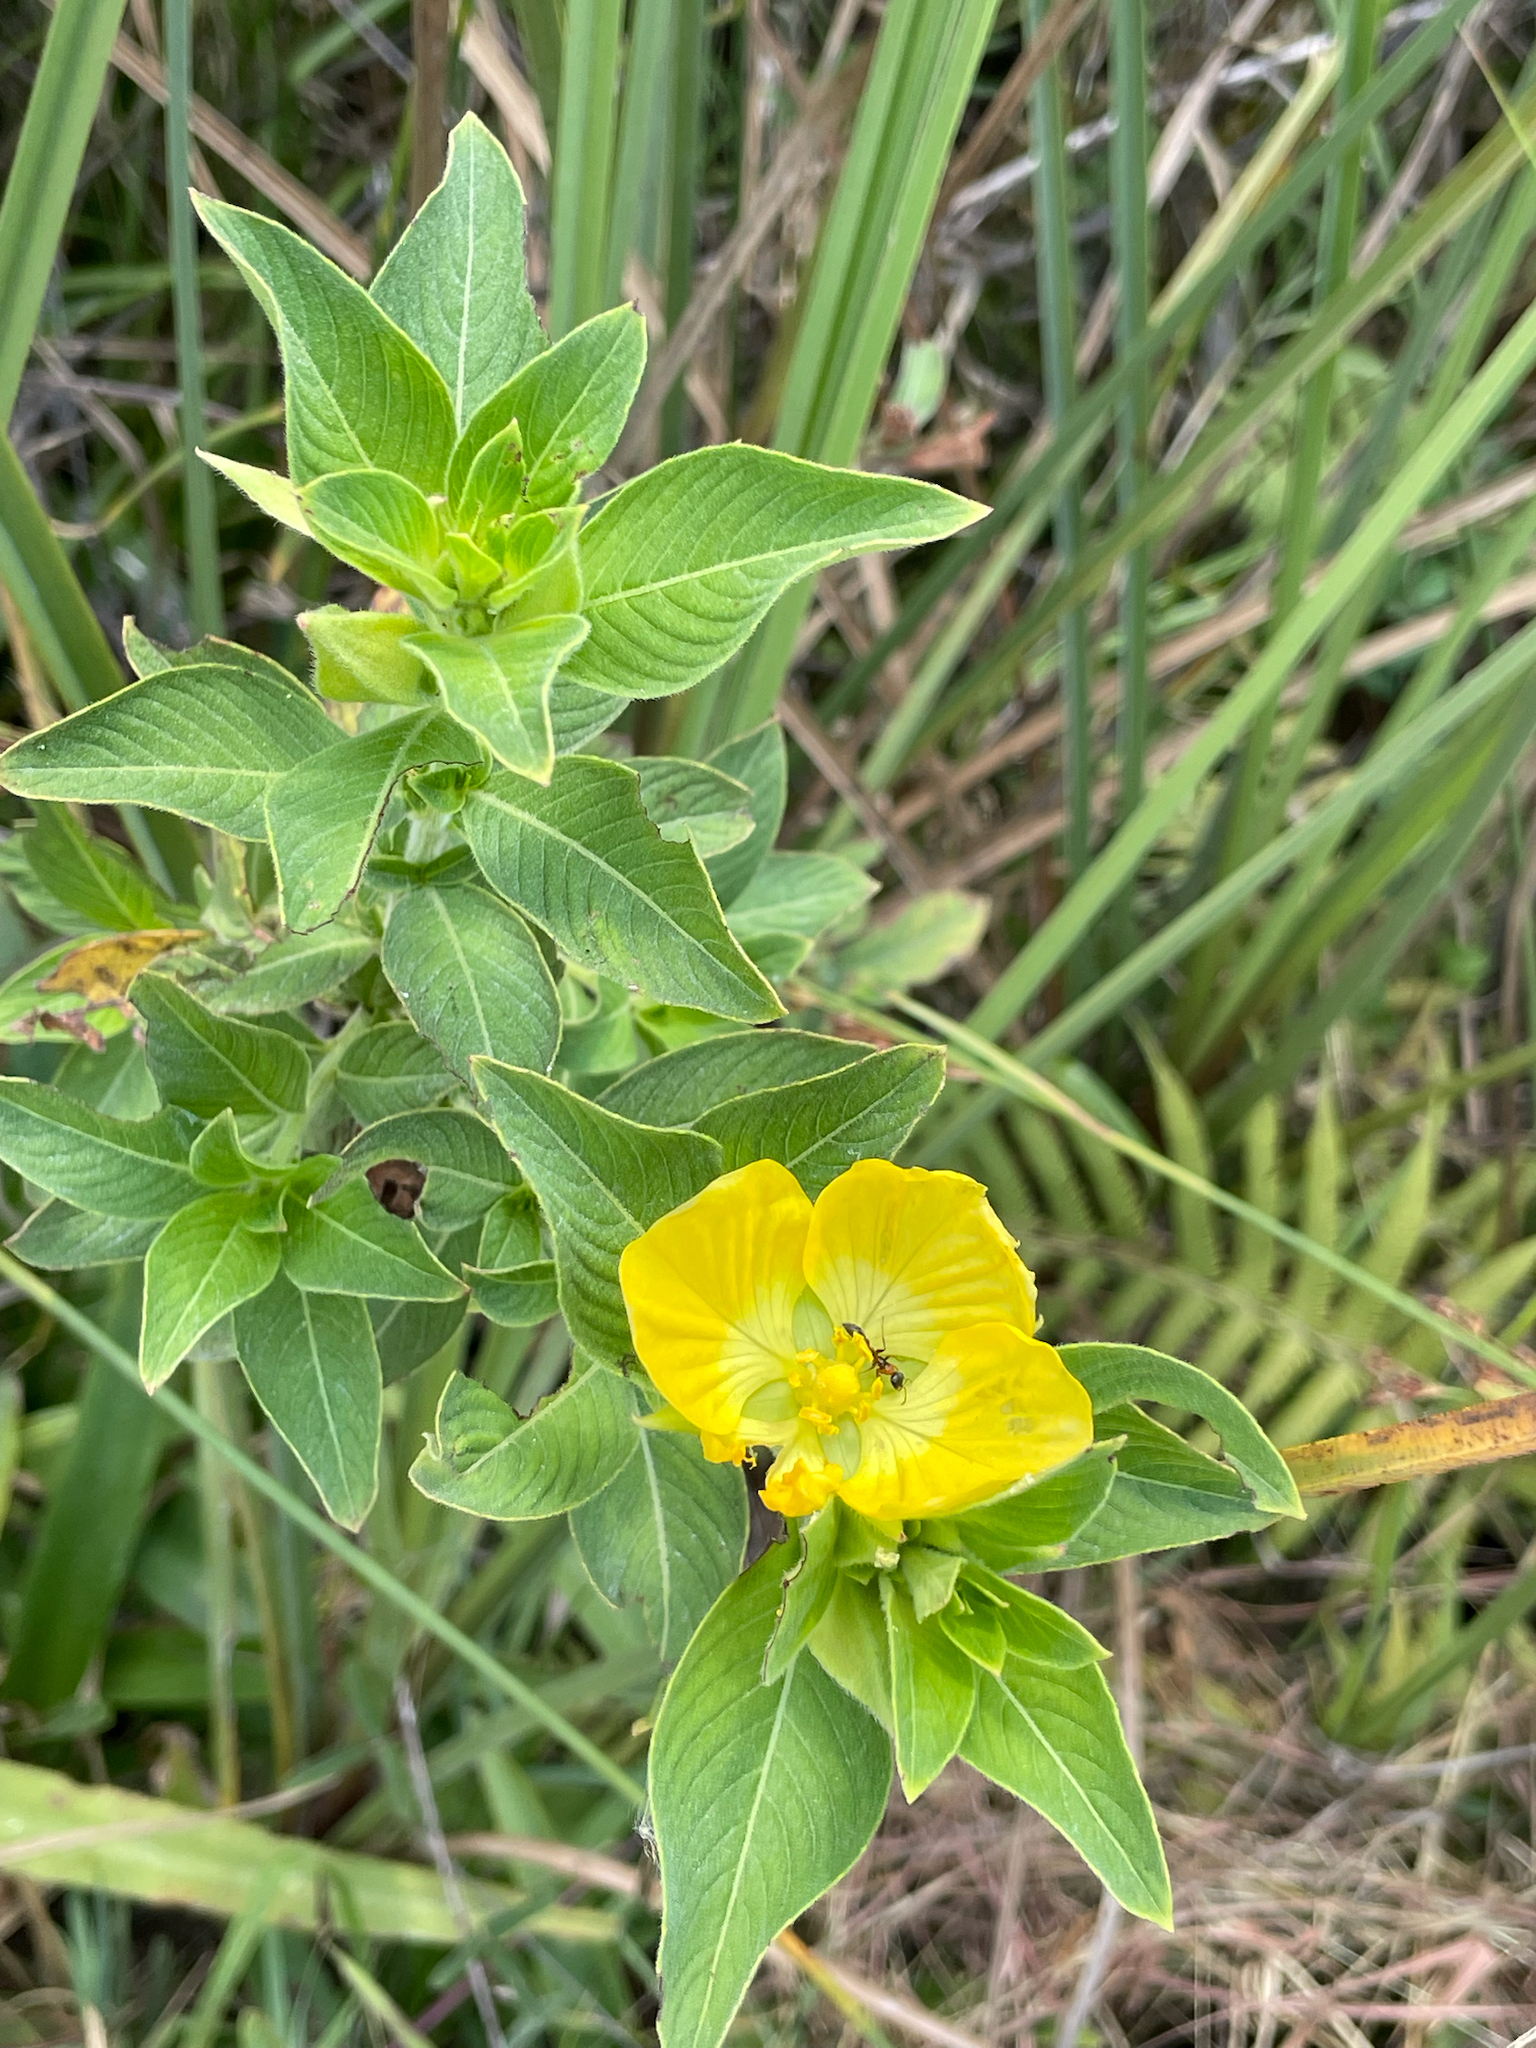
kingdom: Plantae
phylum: Tracheophyta
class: Magnoliopsida
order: Myrtales
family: Onagraceae
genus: Ludwigia
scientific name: Ludwigia peruviana
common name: Peruvian primrose-willow
